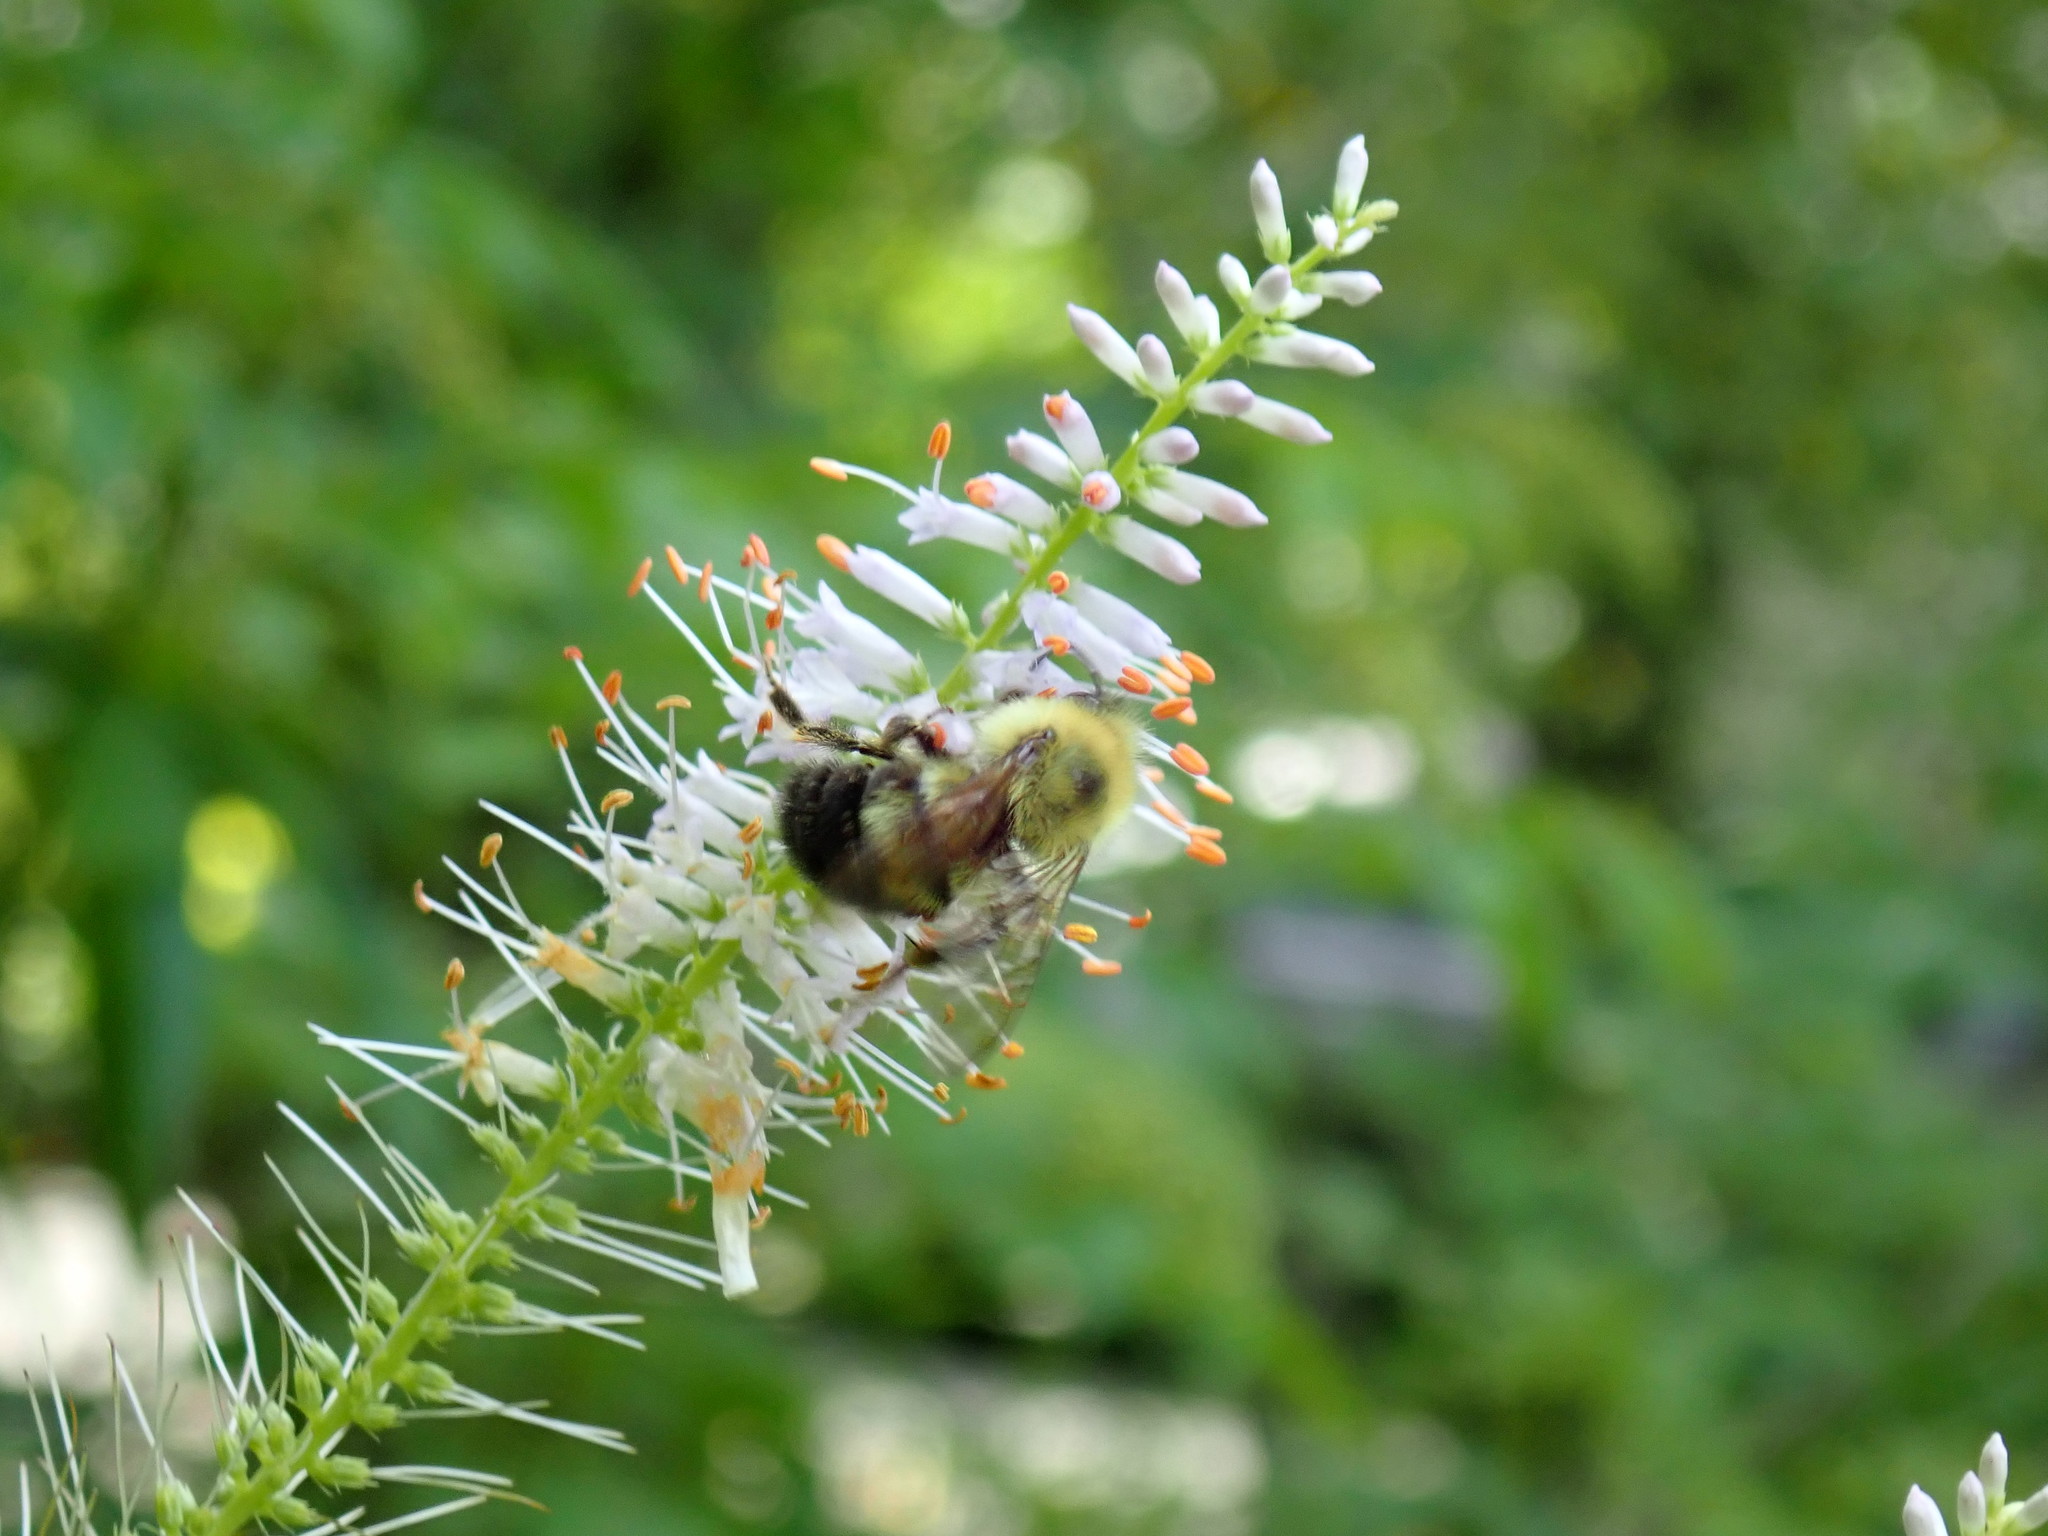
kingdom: Animalia
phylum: Arthropoda
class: Insecta
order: Hymenoptera
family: Apidae
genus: Bombus
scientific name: Bombus bimaculatus
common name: Two-spotted bumble bee
